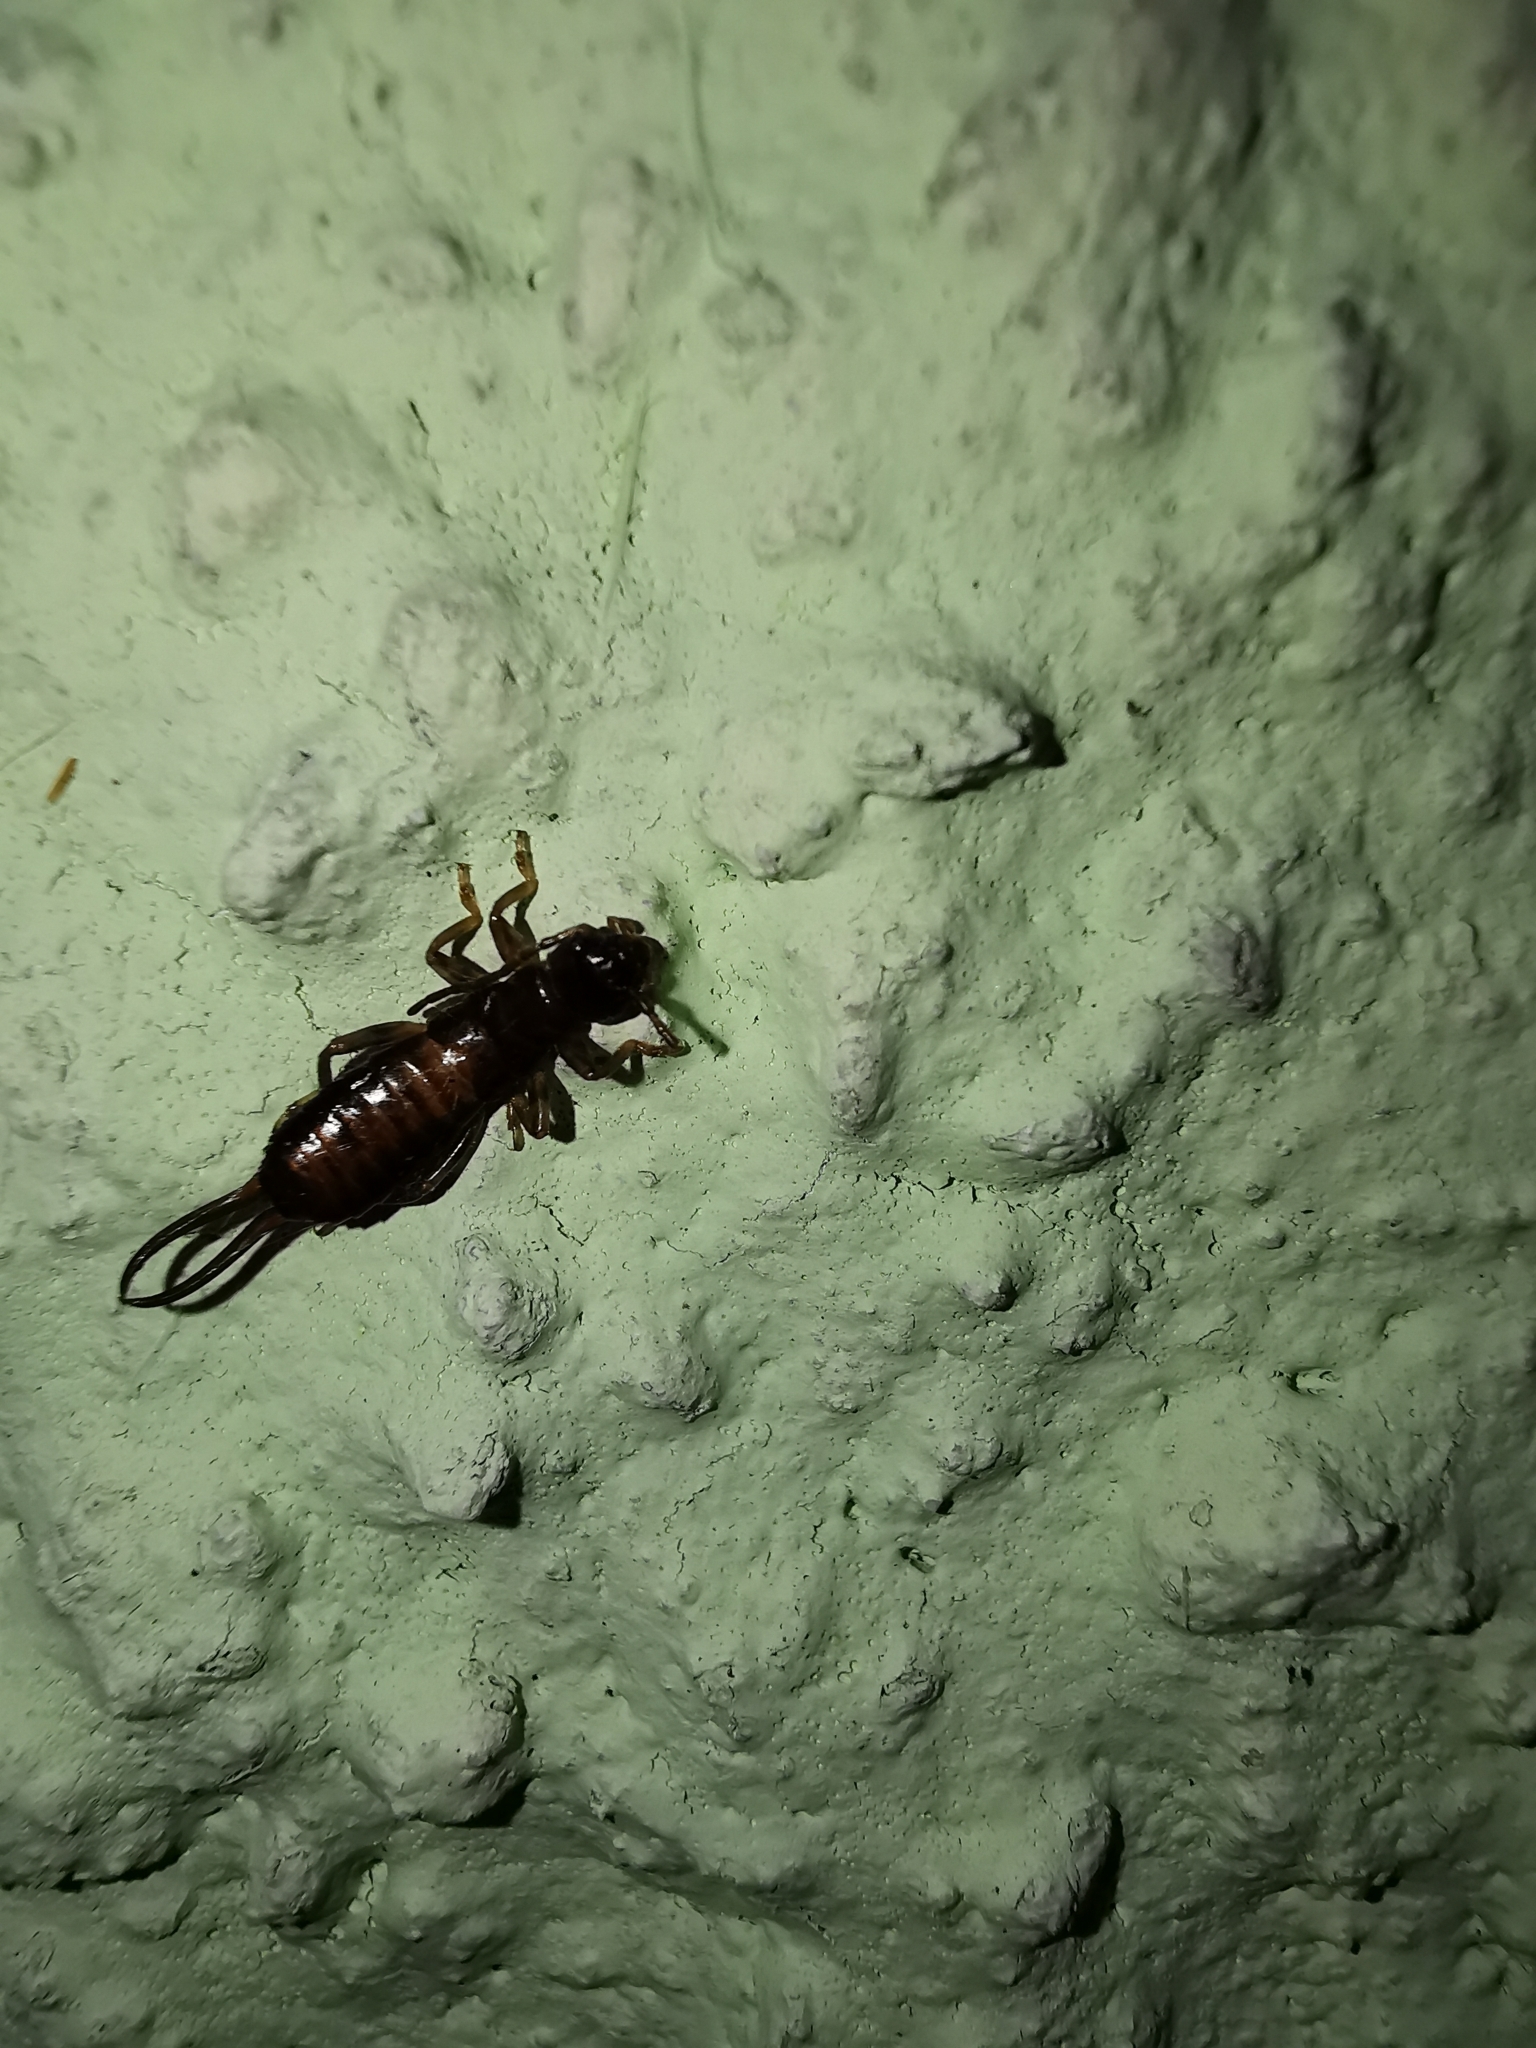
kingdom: Animalia
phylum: Arthropoda
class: Insecta
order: Dermaptera
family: Forficulidae
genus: Forficula
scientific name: Forficula
